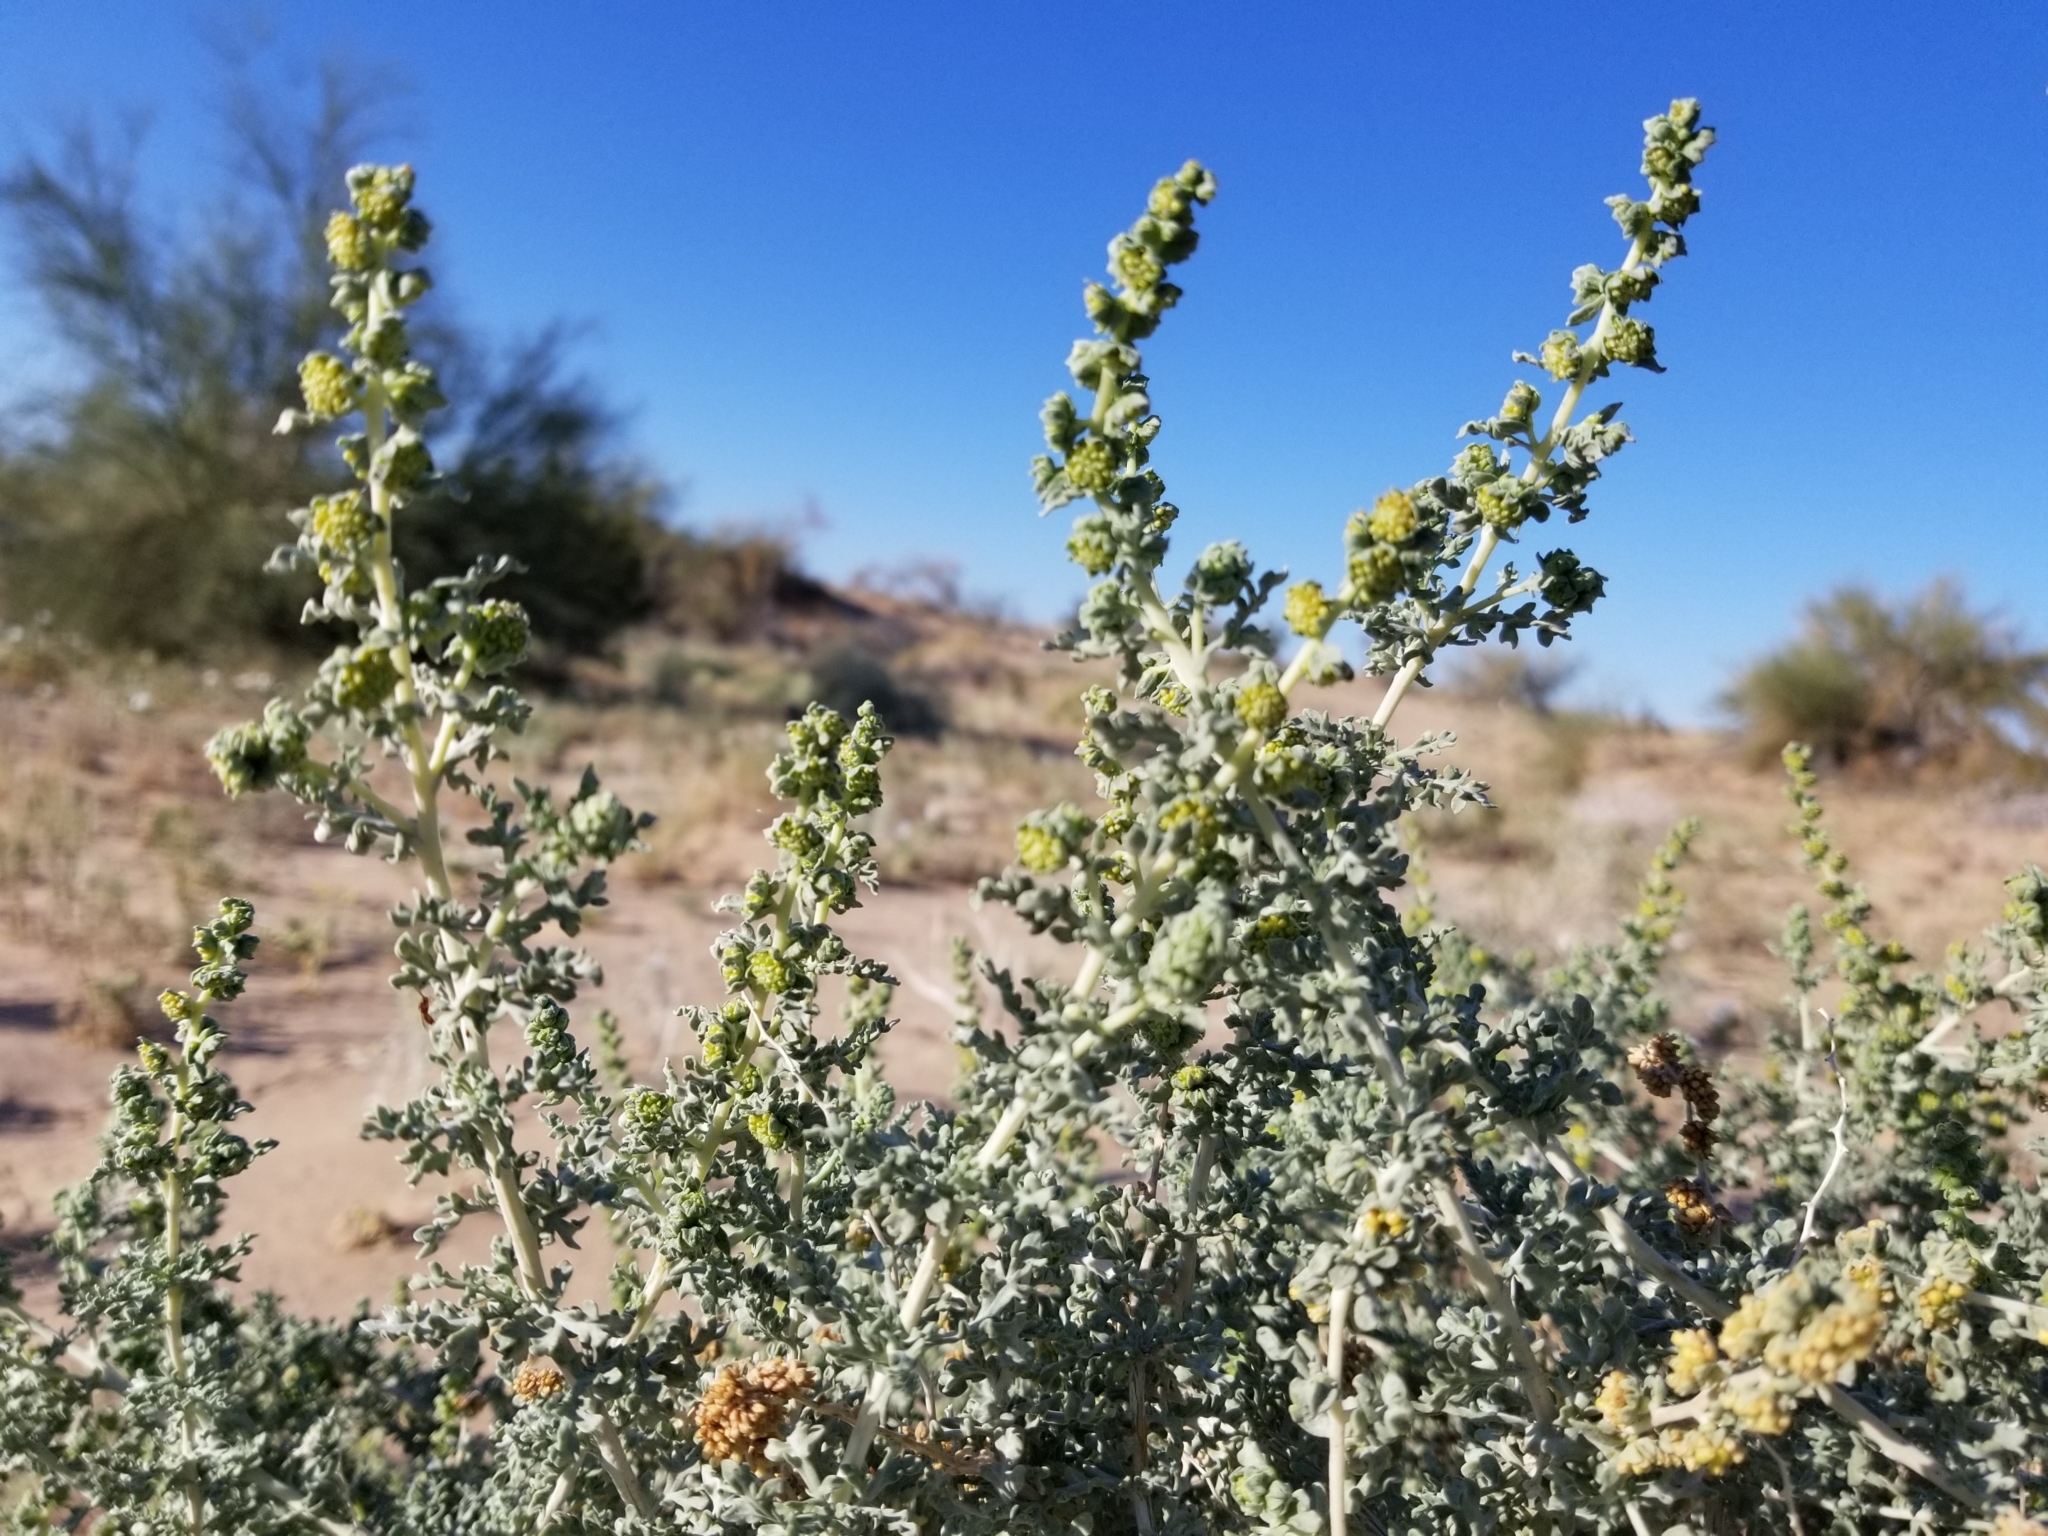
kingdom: Plantae
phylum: Tracheophyta
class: Magnoliopsida
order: Asterales
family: Asteraceae
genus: Ambrosia
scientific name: Ambrosia dumosa
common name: Bur-sage
